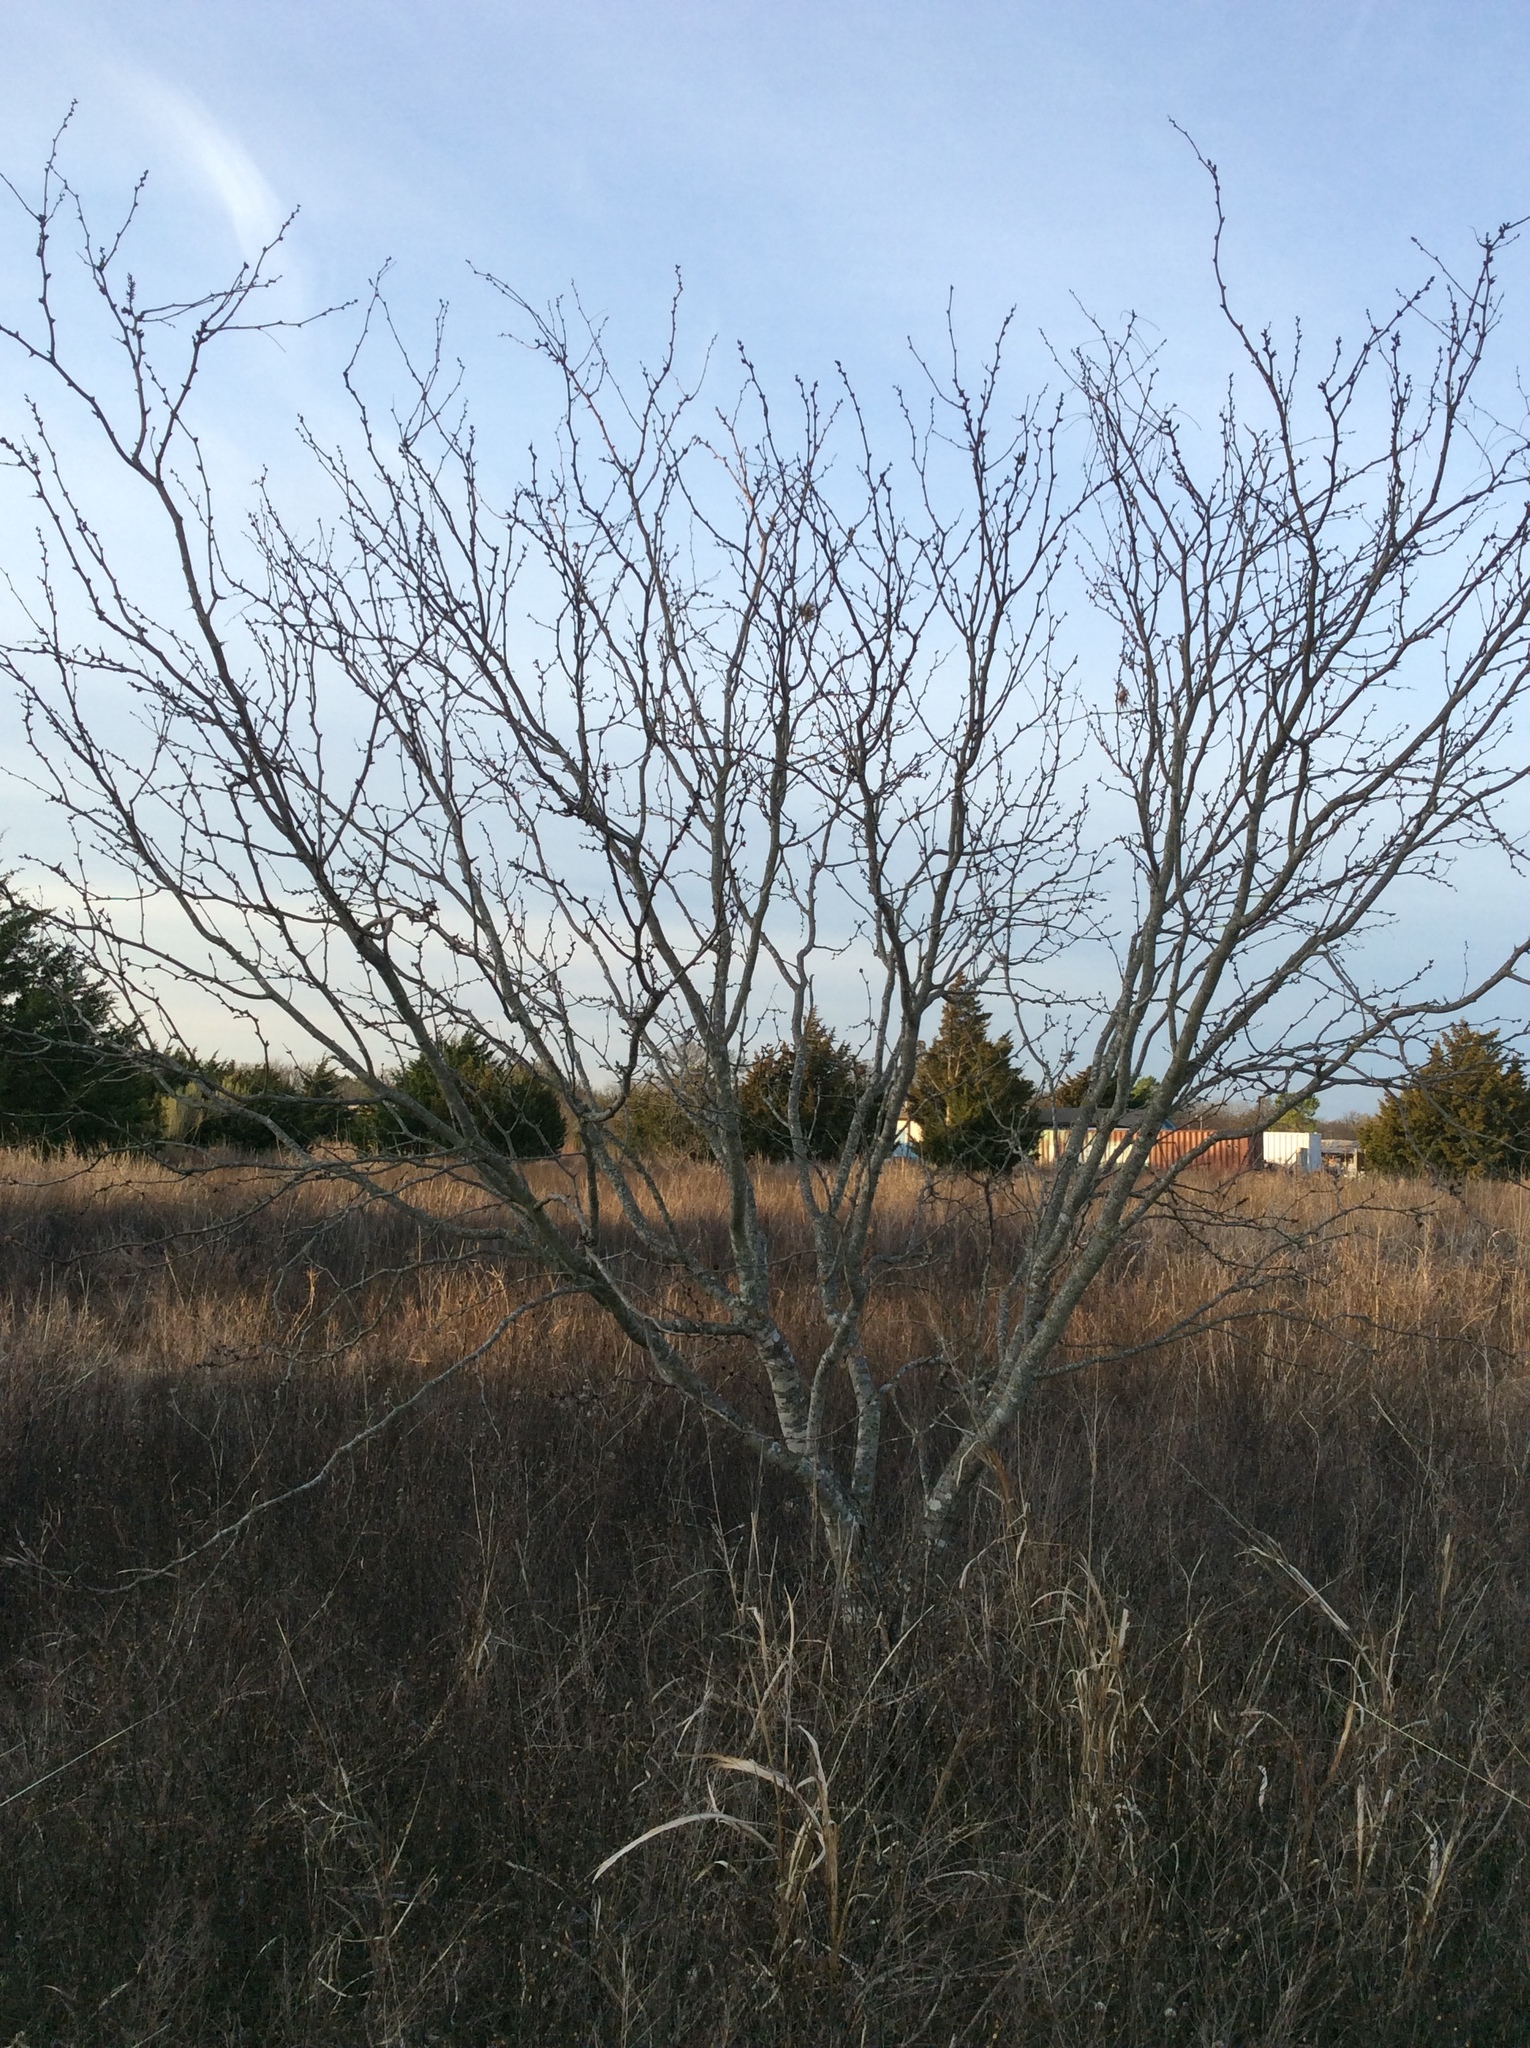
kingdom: Plantae
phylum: Tracheophyta
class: Magnoliopsida
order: Fabales
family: Fabaceae
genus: Prosopis
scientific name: Prosopis glandulosa
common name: Honey mesquite
